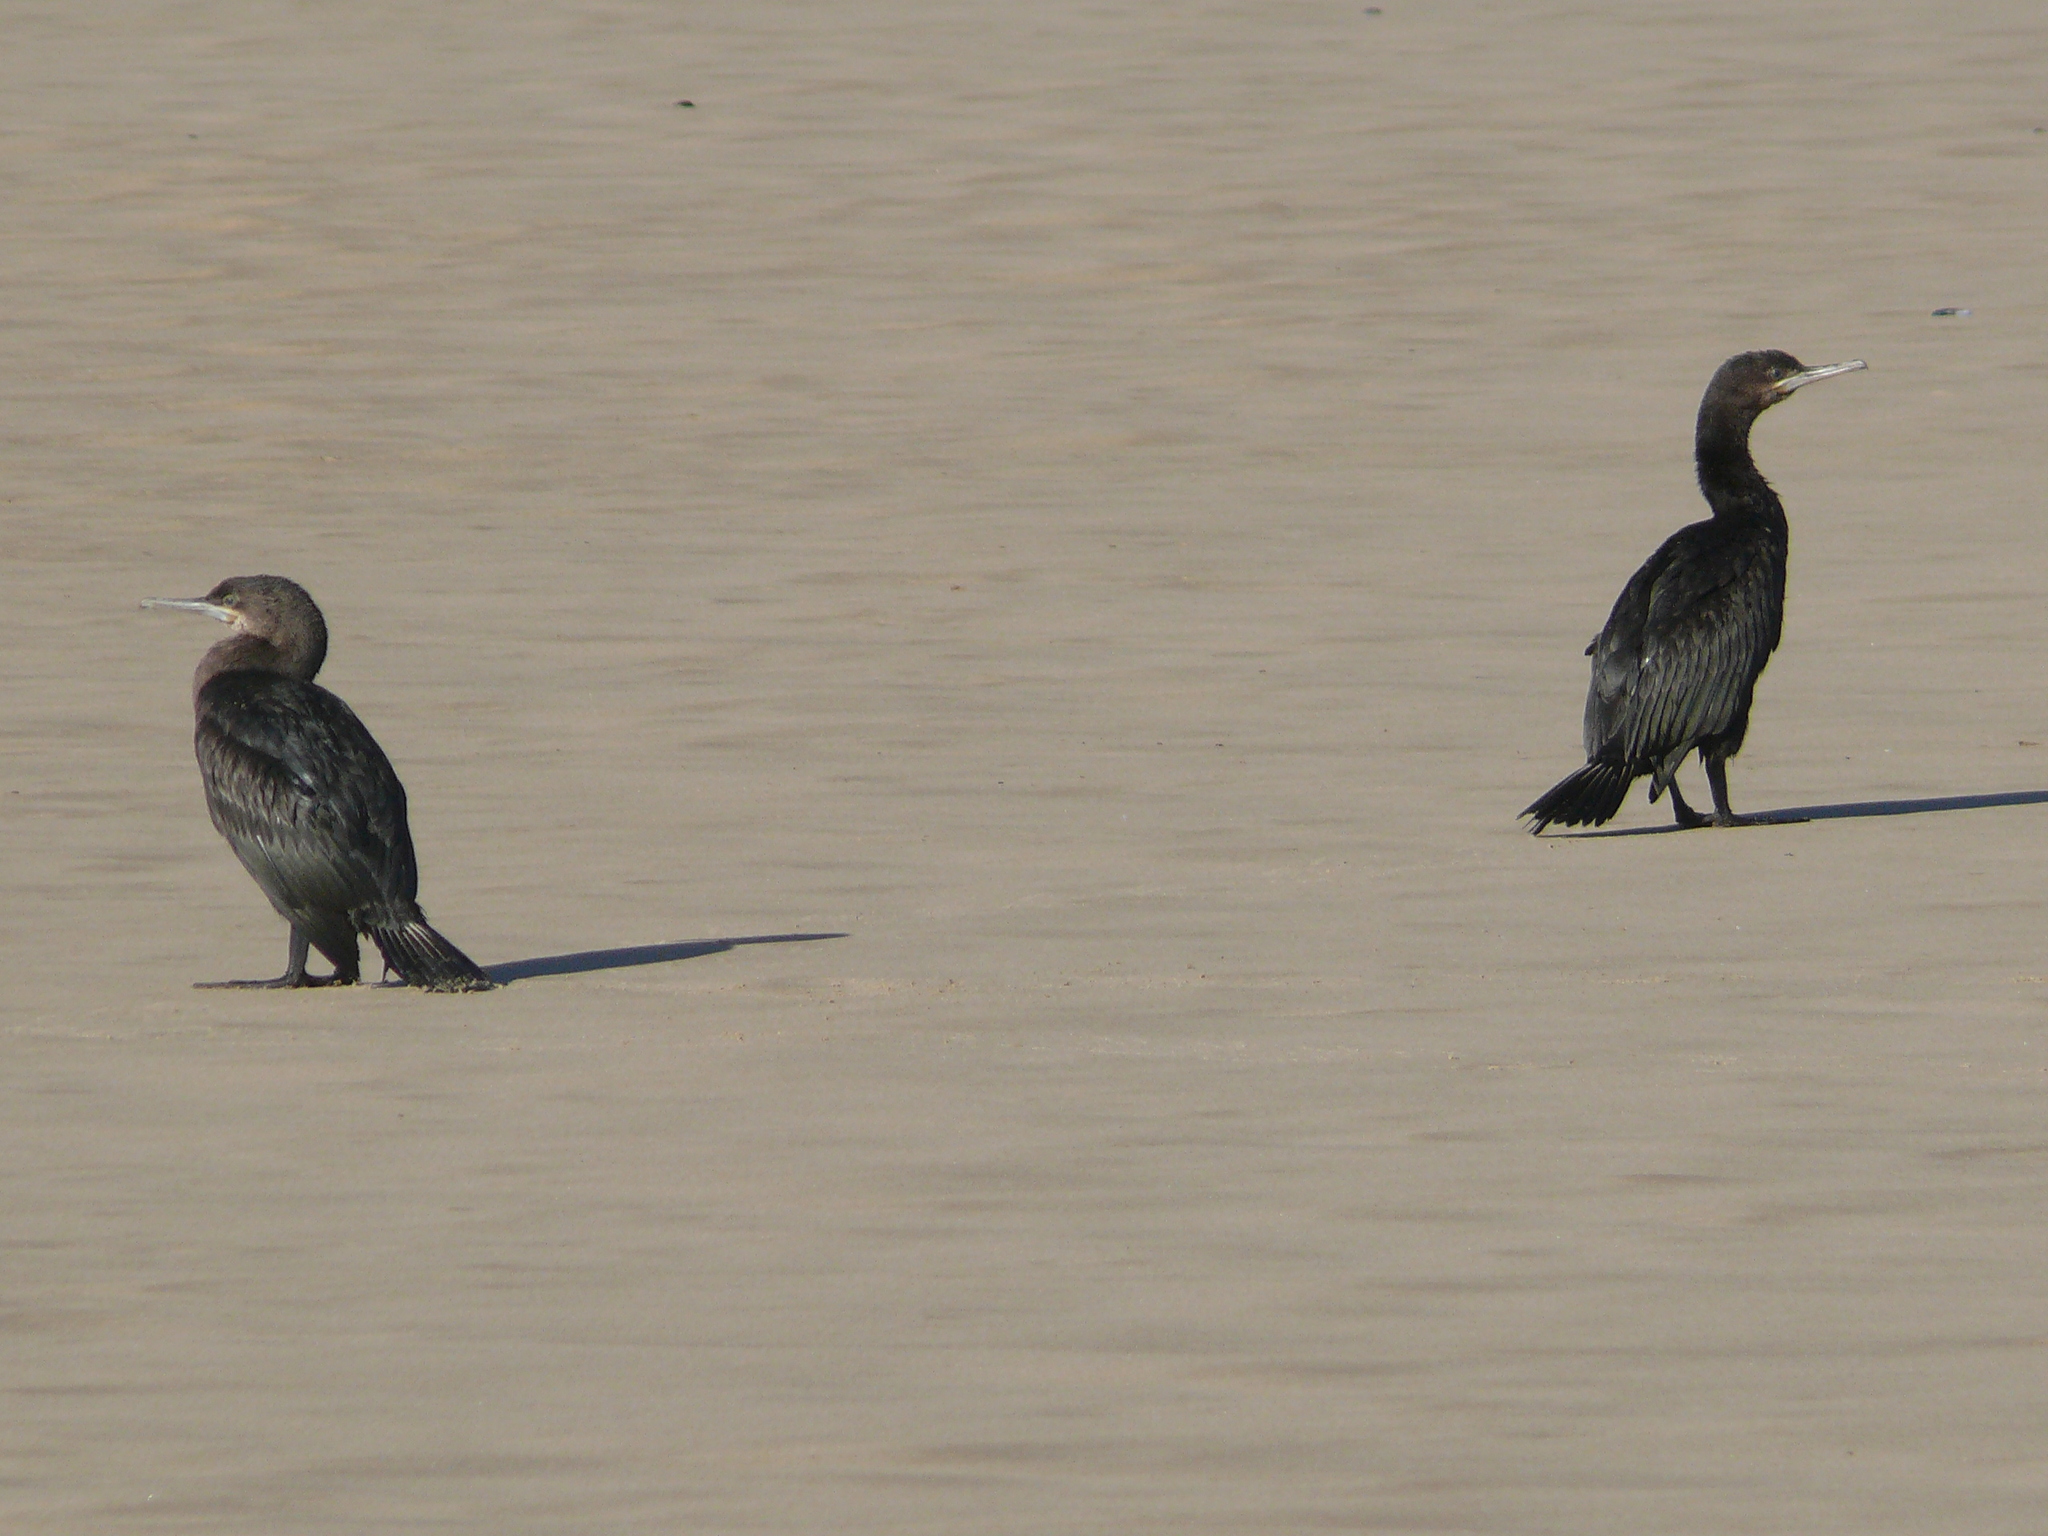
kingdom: Animalia
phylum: Chordata
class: Aves
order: Suliformes
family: Phalacrocoracidae
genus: Phalacrocorax
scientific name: Phalacrocorax capensis
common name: Cape cormorant
